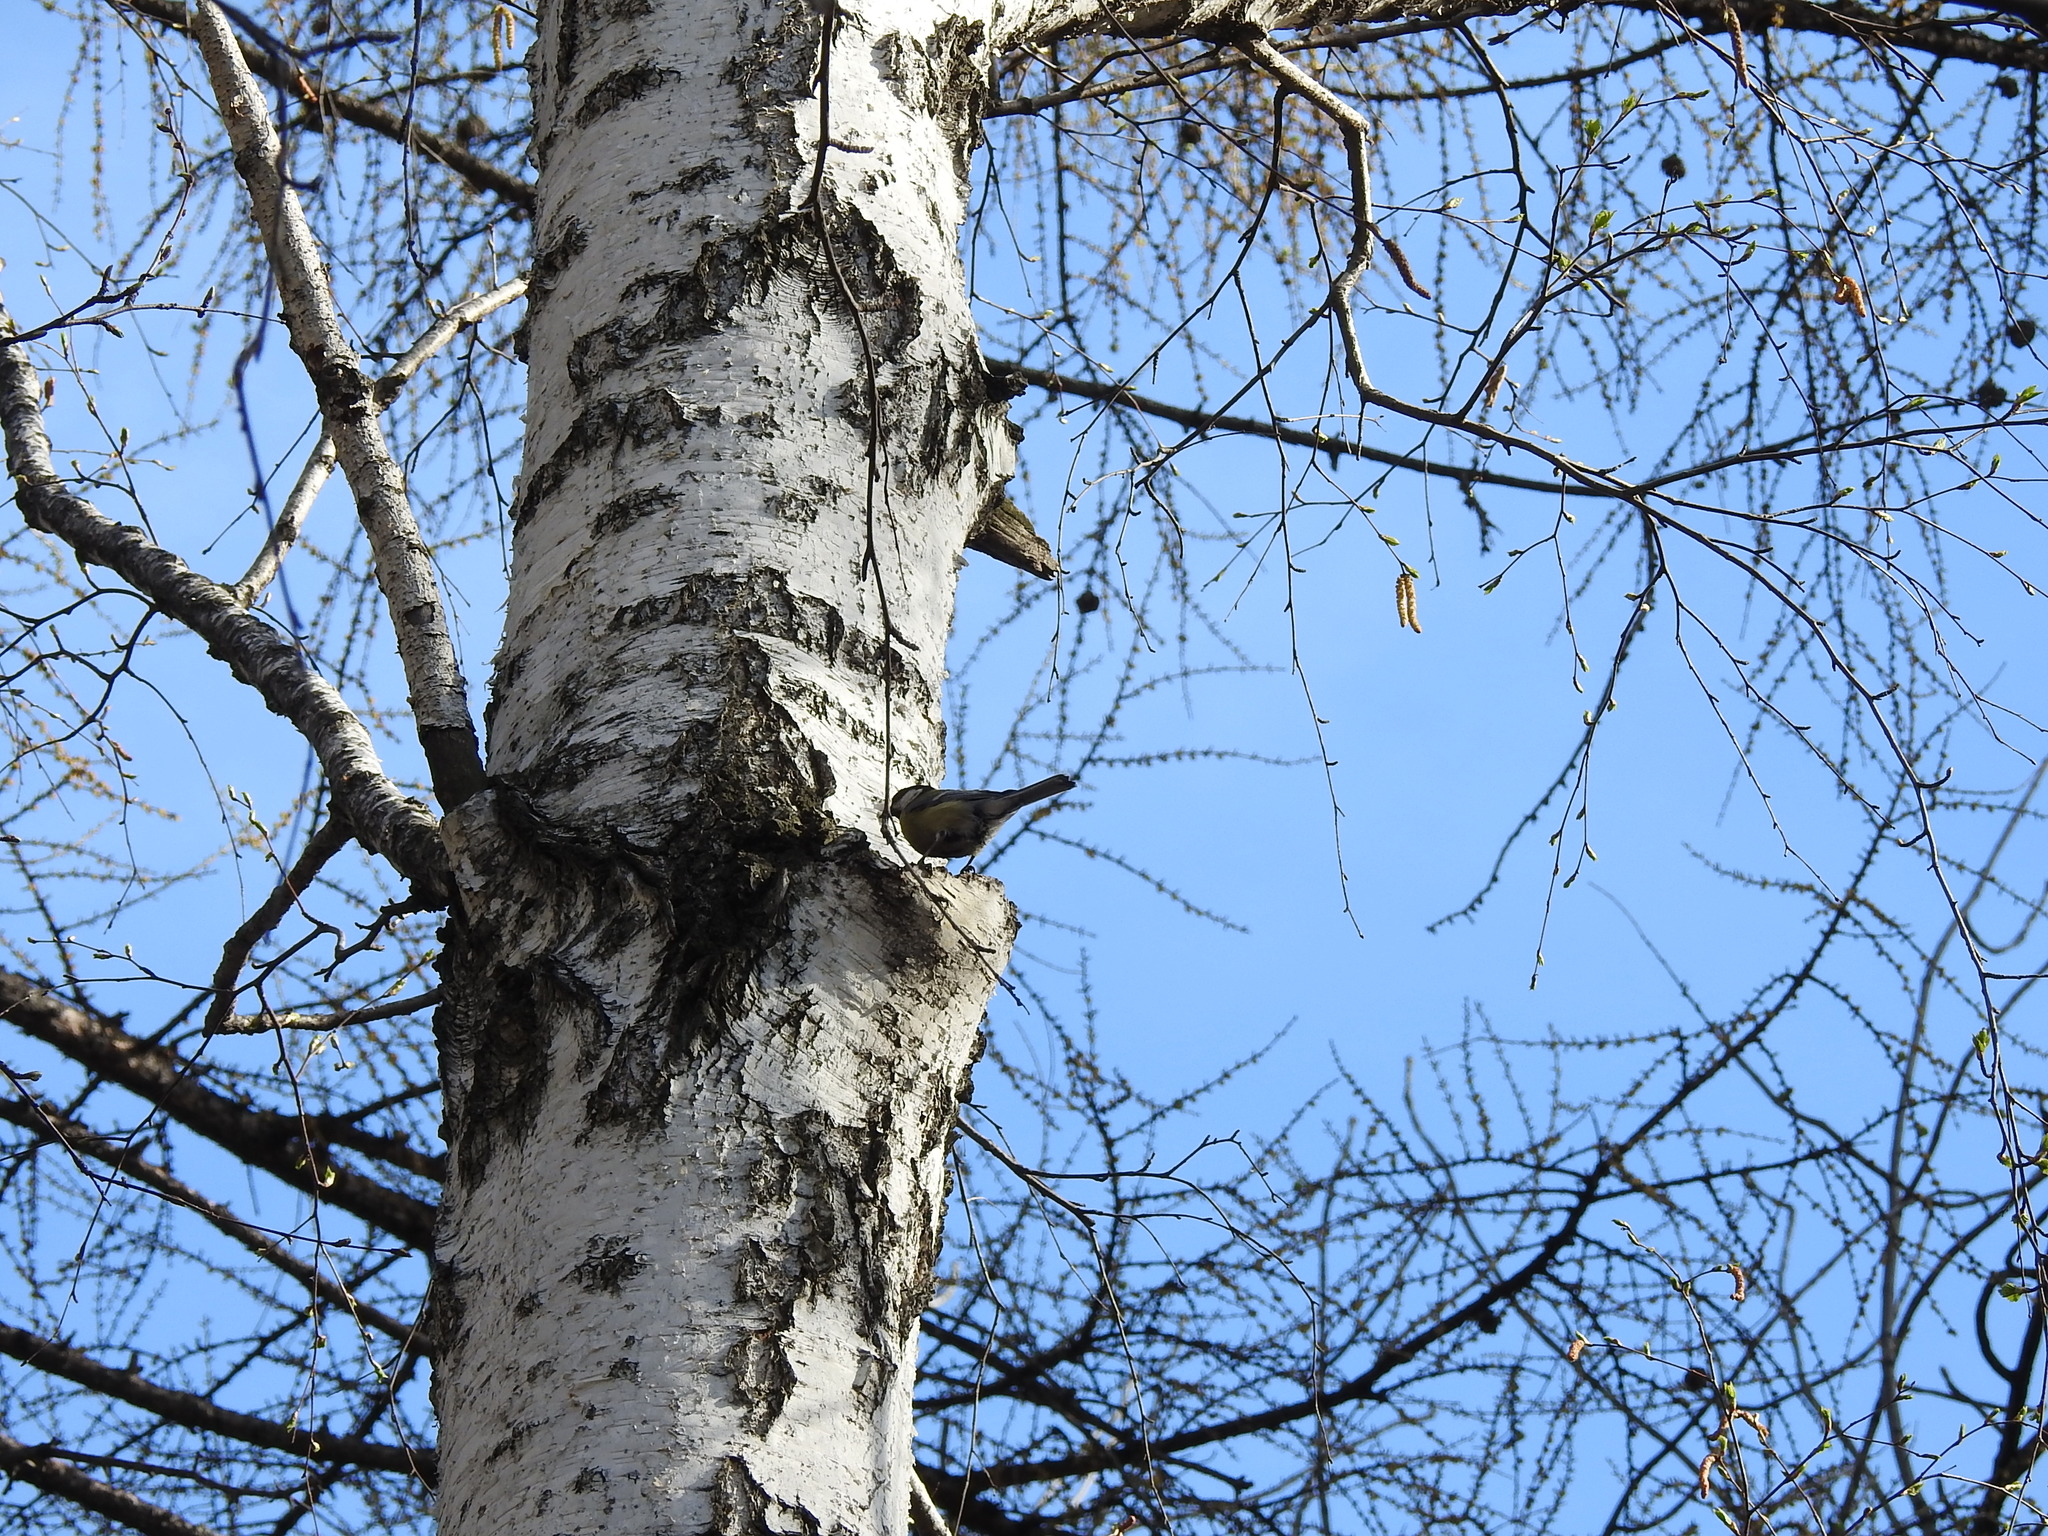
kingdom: Animalia
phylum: Chordata
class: Aves
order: Passeriformes
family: Paridae
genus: Parus
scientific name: Parus major
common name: Great tit
